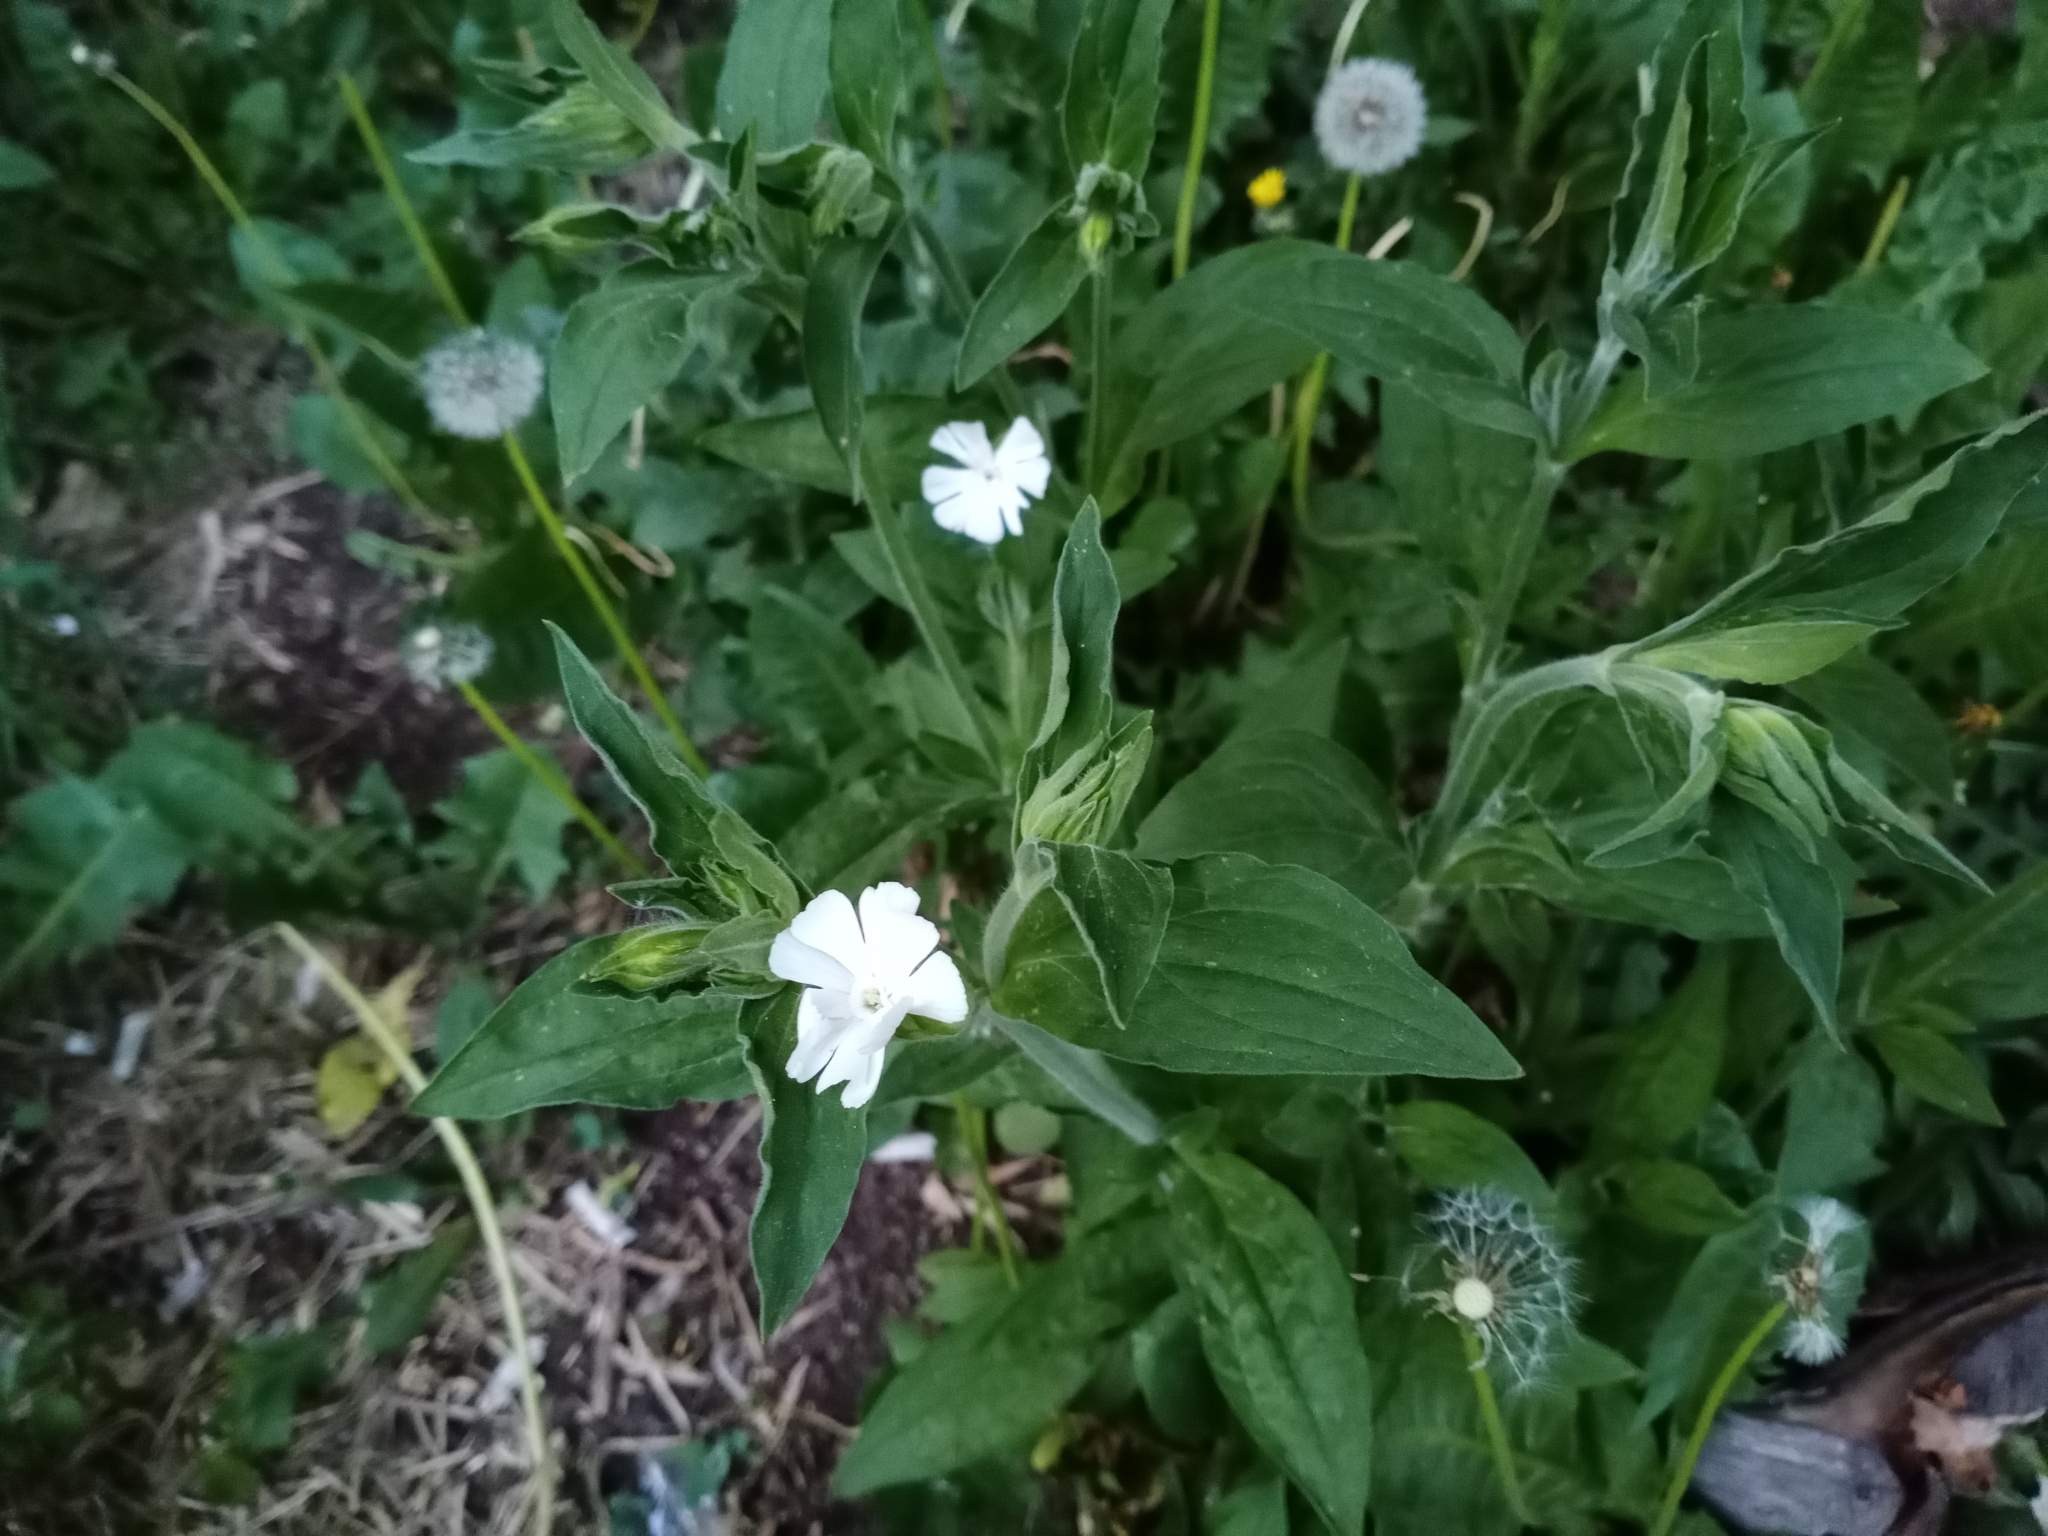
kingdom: Plantae
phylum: Tracheophyta
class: Magnoliopsida
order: Caryophyllales
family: Caryophyllaceae
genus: Silene
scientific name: Silene latifolia
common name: White campion
